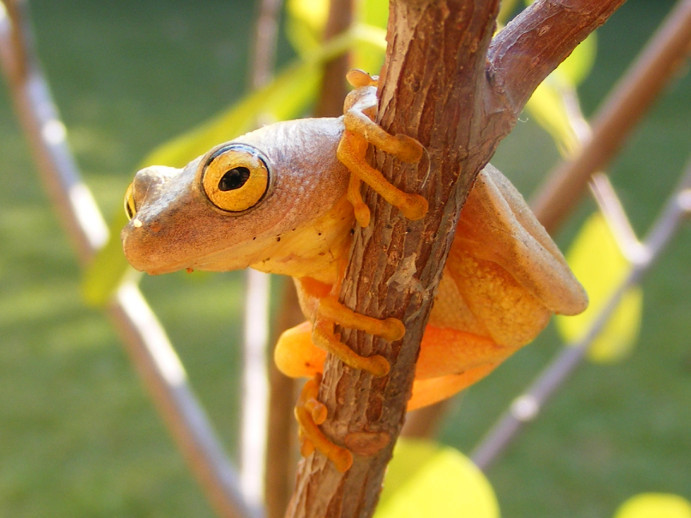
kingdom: Animalia
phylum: Chordata
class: Amphibia
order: Anura
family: Hyperoliidae
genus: Hyperolius
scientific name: Hyperolius tuberilinguis
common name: Tinker reed frog
